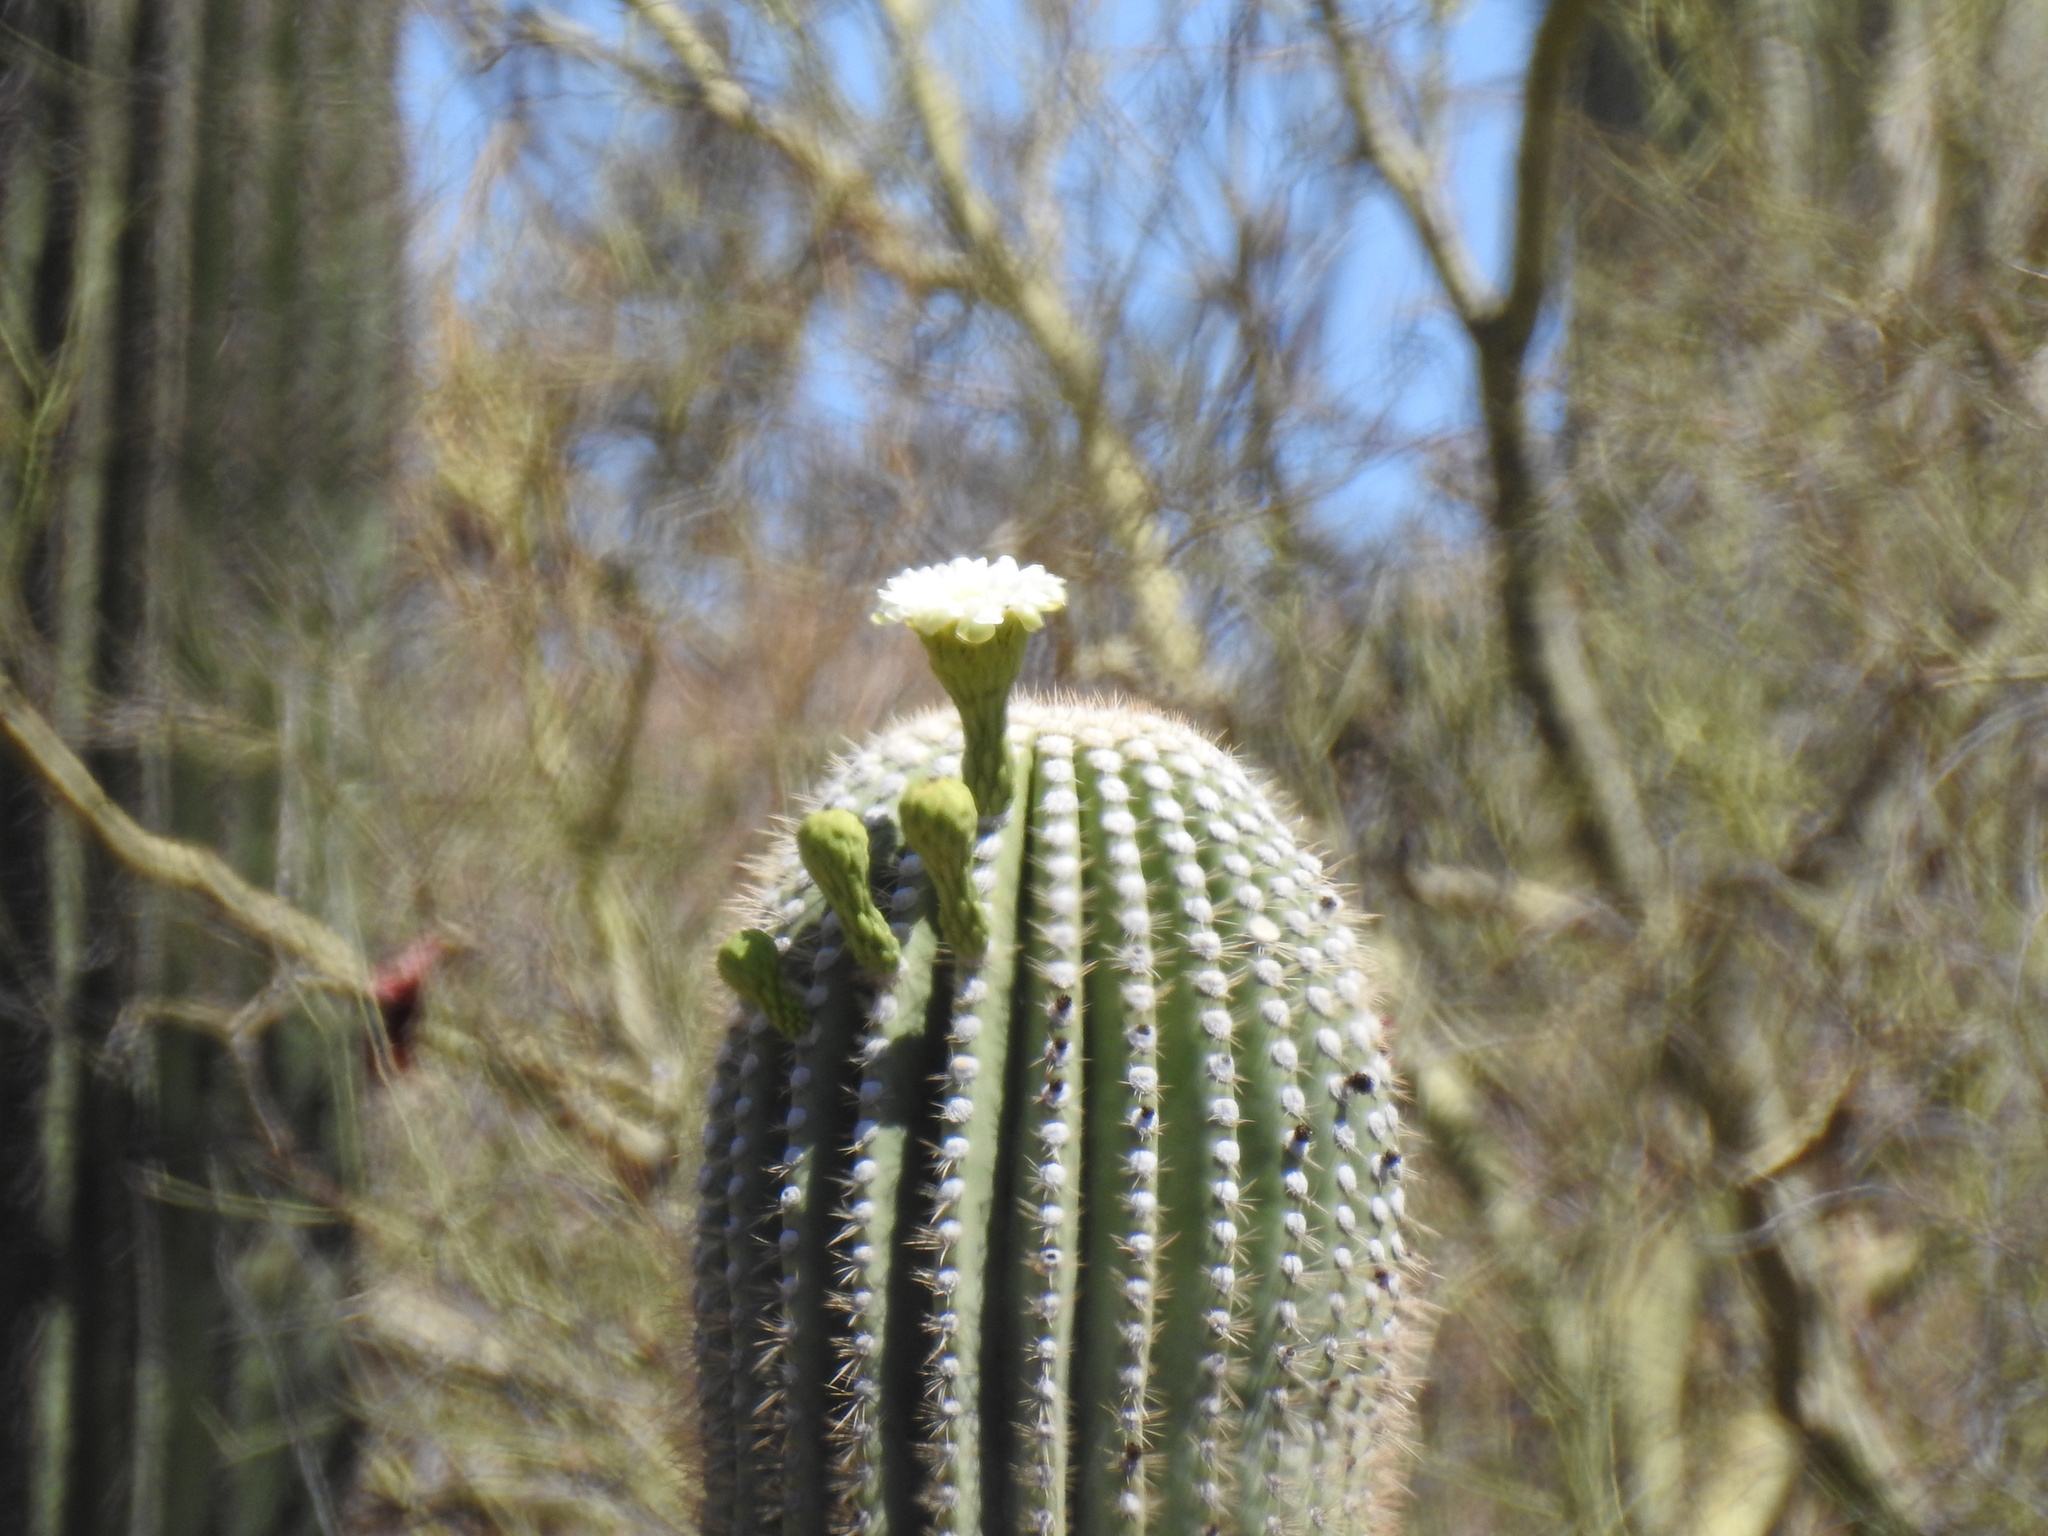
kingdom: Plantae
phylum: Tracheophyta
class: Magnoliopsida
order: Caryophyllales
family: Cactaceae
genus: Carnegiea
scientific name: Carnegiea gigantea
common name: Saguaro
